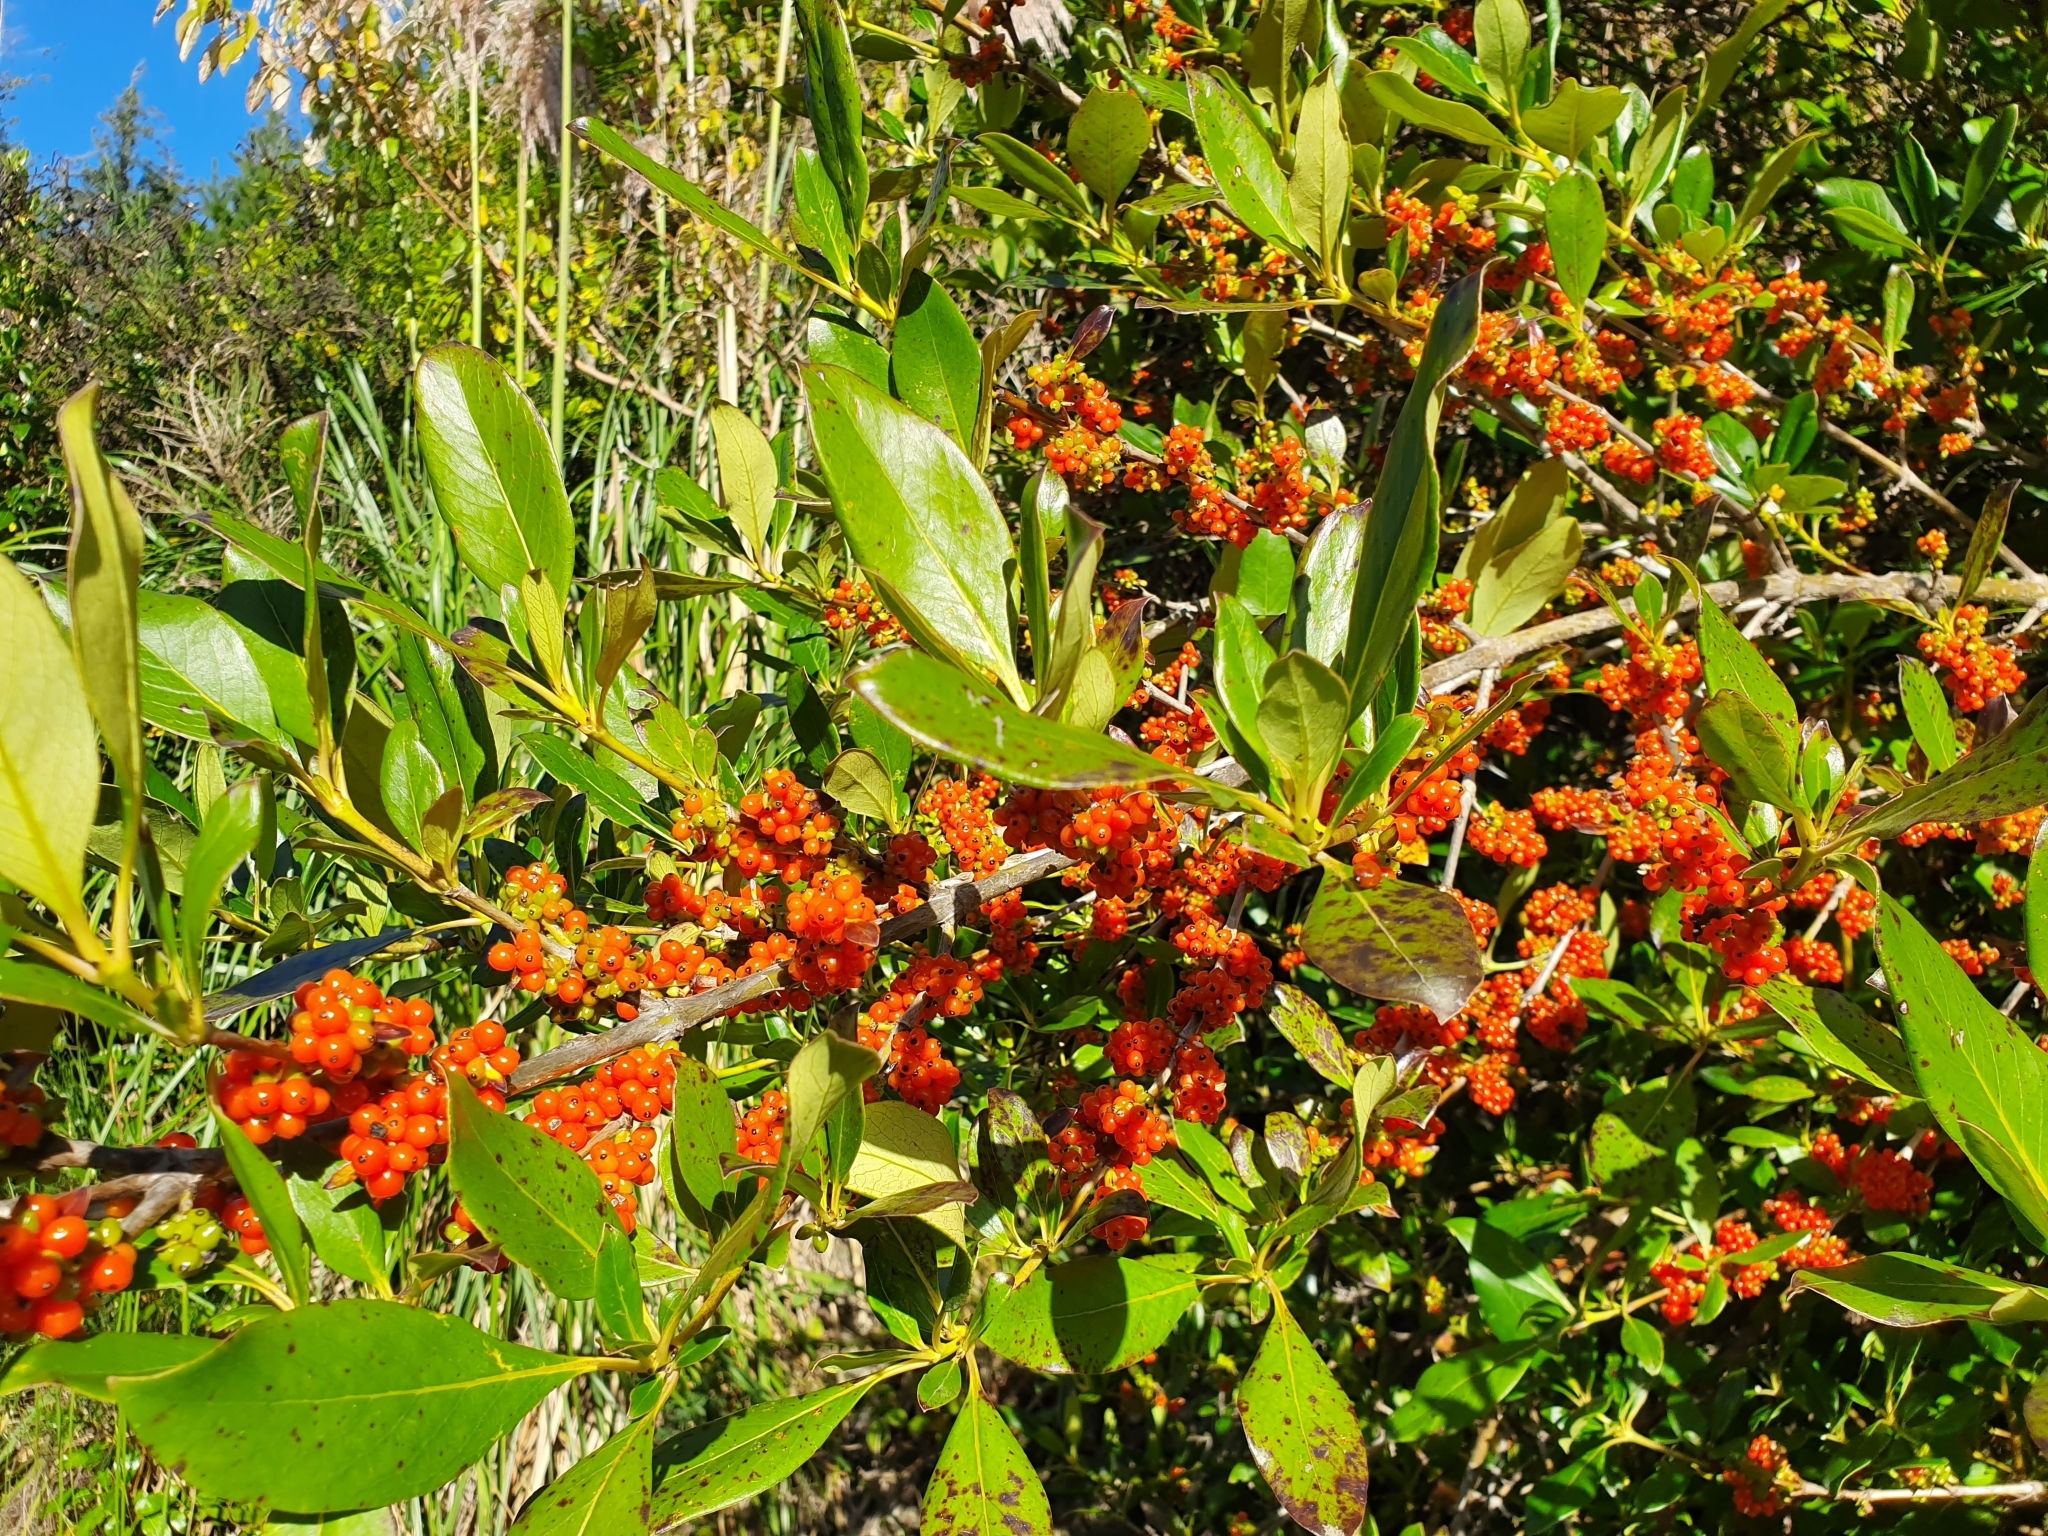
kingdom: Plantae
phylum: Tracheophyta
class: Magnoliopsida
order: Gentianales
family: Rubiaceae
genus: Coprosma
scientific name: Coprosma robusta
